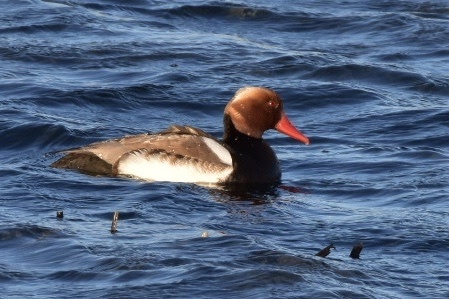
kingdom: Animalia
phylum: Chordata
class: Aves
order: Anseriformes
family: Anatidae
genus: Netta
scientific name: Netta rufina
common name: Red-crested pochard
